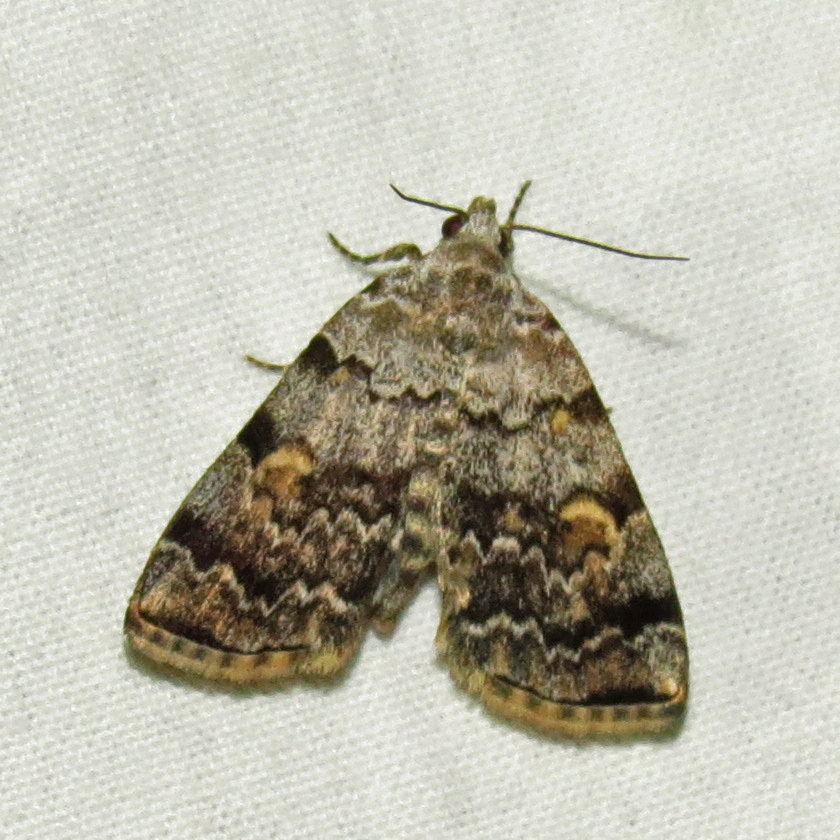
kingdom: Animalia
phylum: Arthropoda
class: Insecta
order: Lepidoptera
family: Erebidae
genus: Idia
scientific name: Idia americalis
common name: American idia moth
